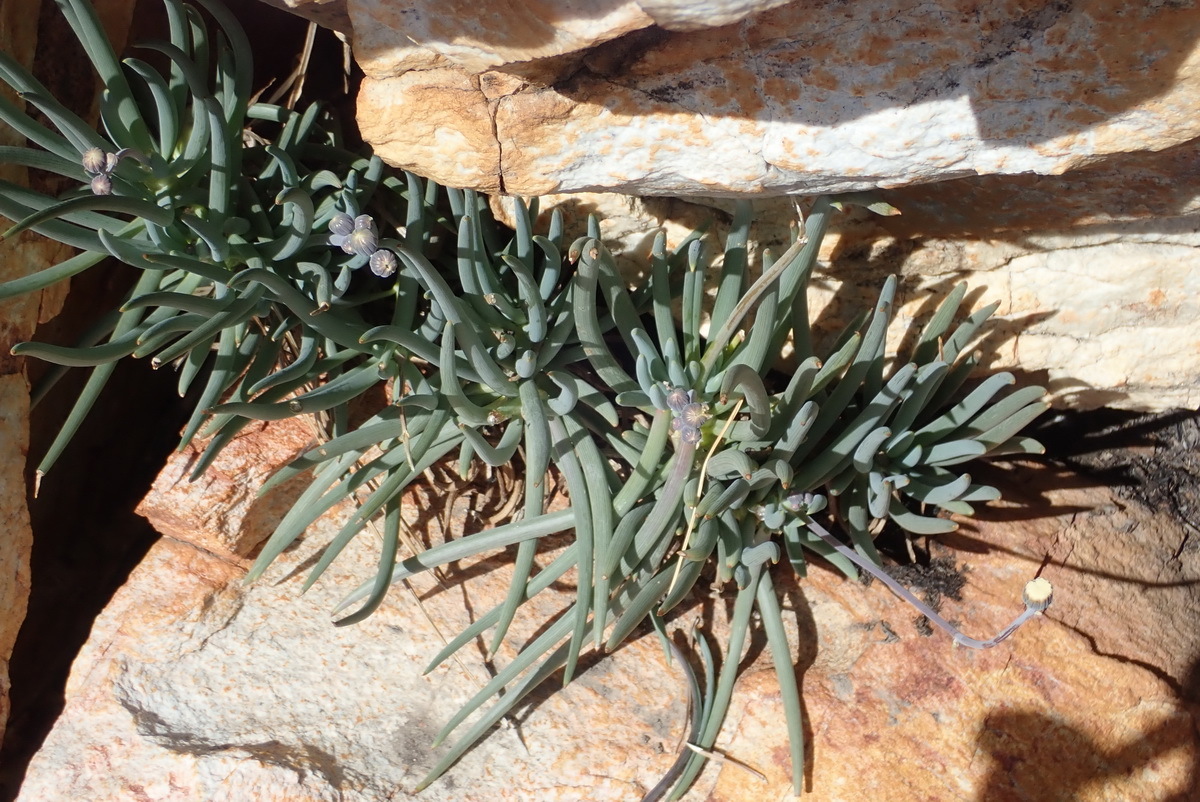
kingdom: Plantae
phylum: Tracheophyta
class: Magnoliopsida
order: Asterales
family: Asteraceae
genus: Curio
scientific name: Curio talinoides
